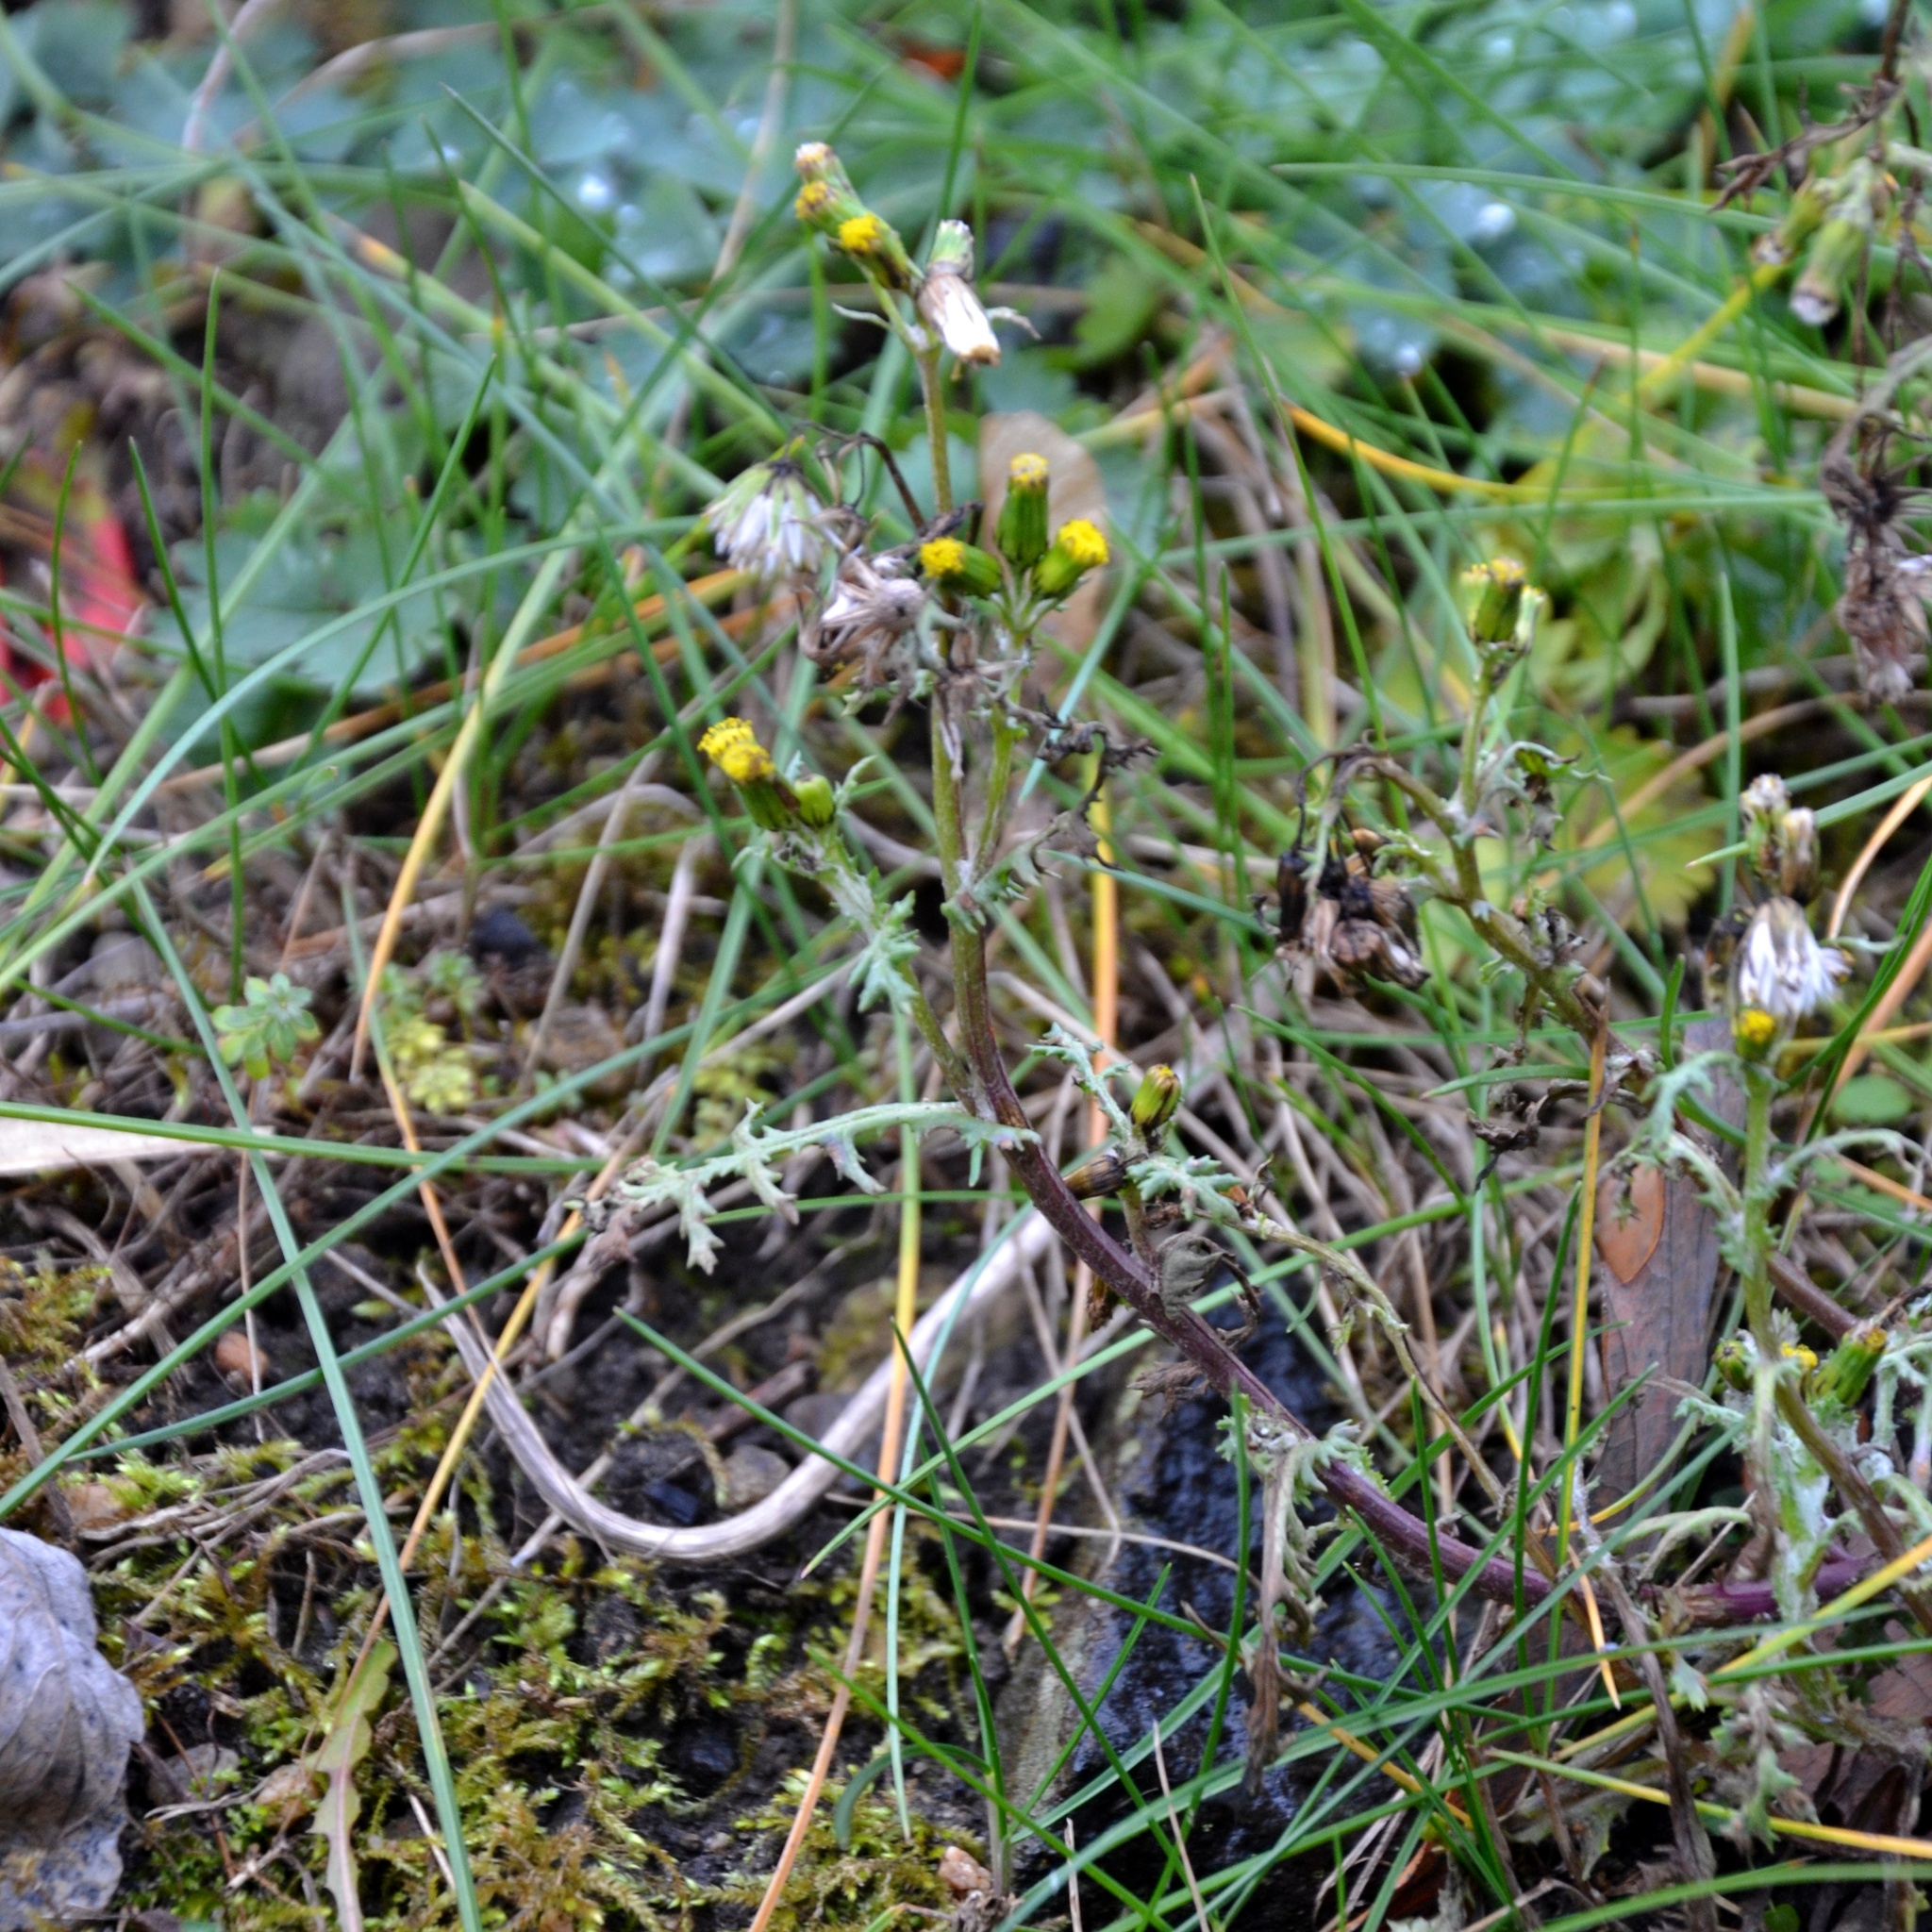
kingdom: Plantae
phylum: Tracheophyta
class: Magnoliopsida
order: Asterales
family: Asteraceae
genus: Senecio
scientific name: Senecio vulgaris
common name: Old-man-in-the-spring
